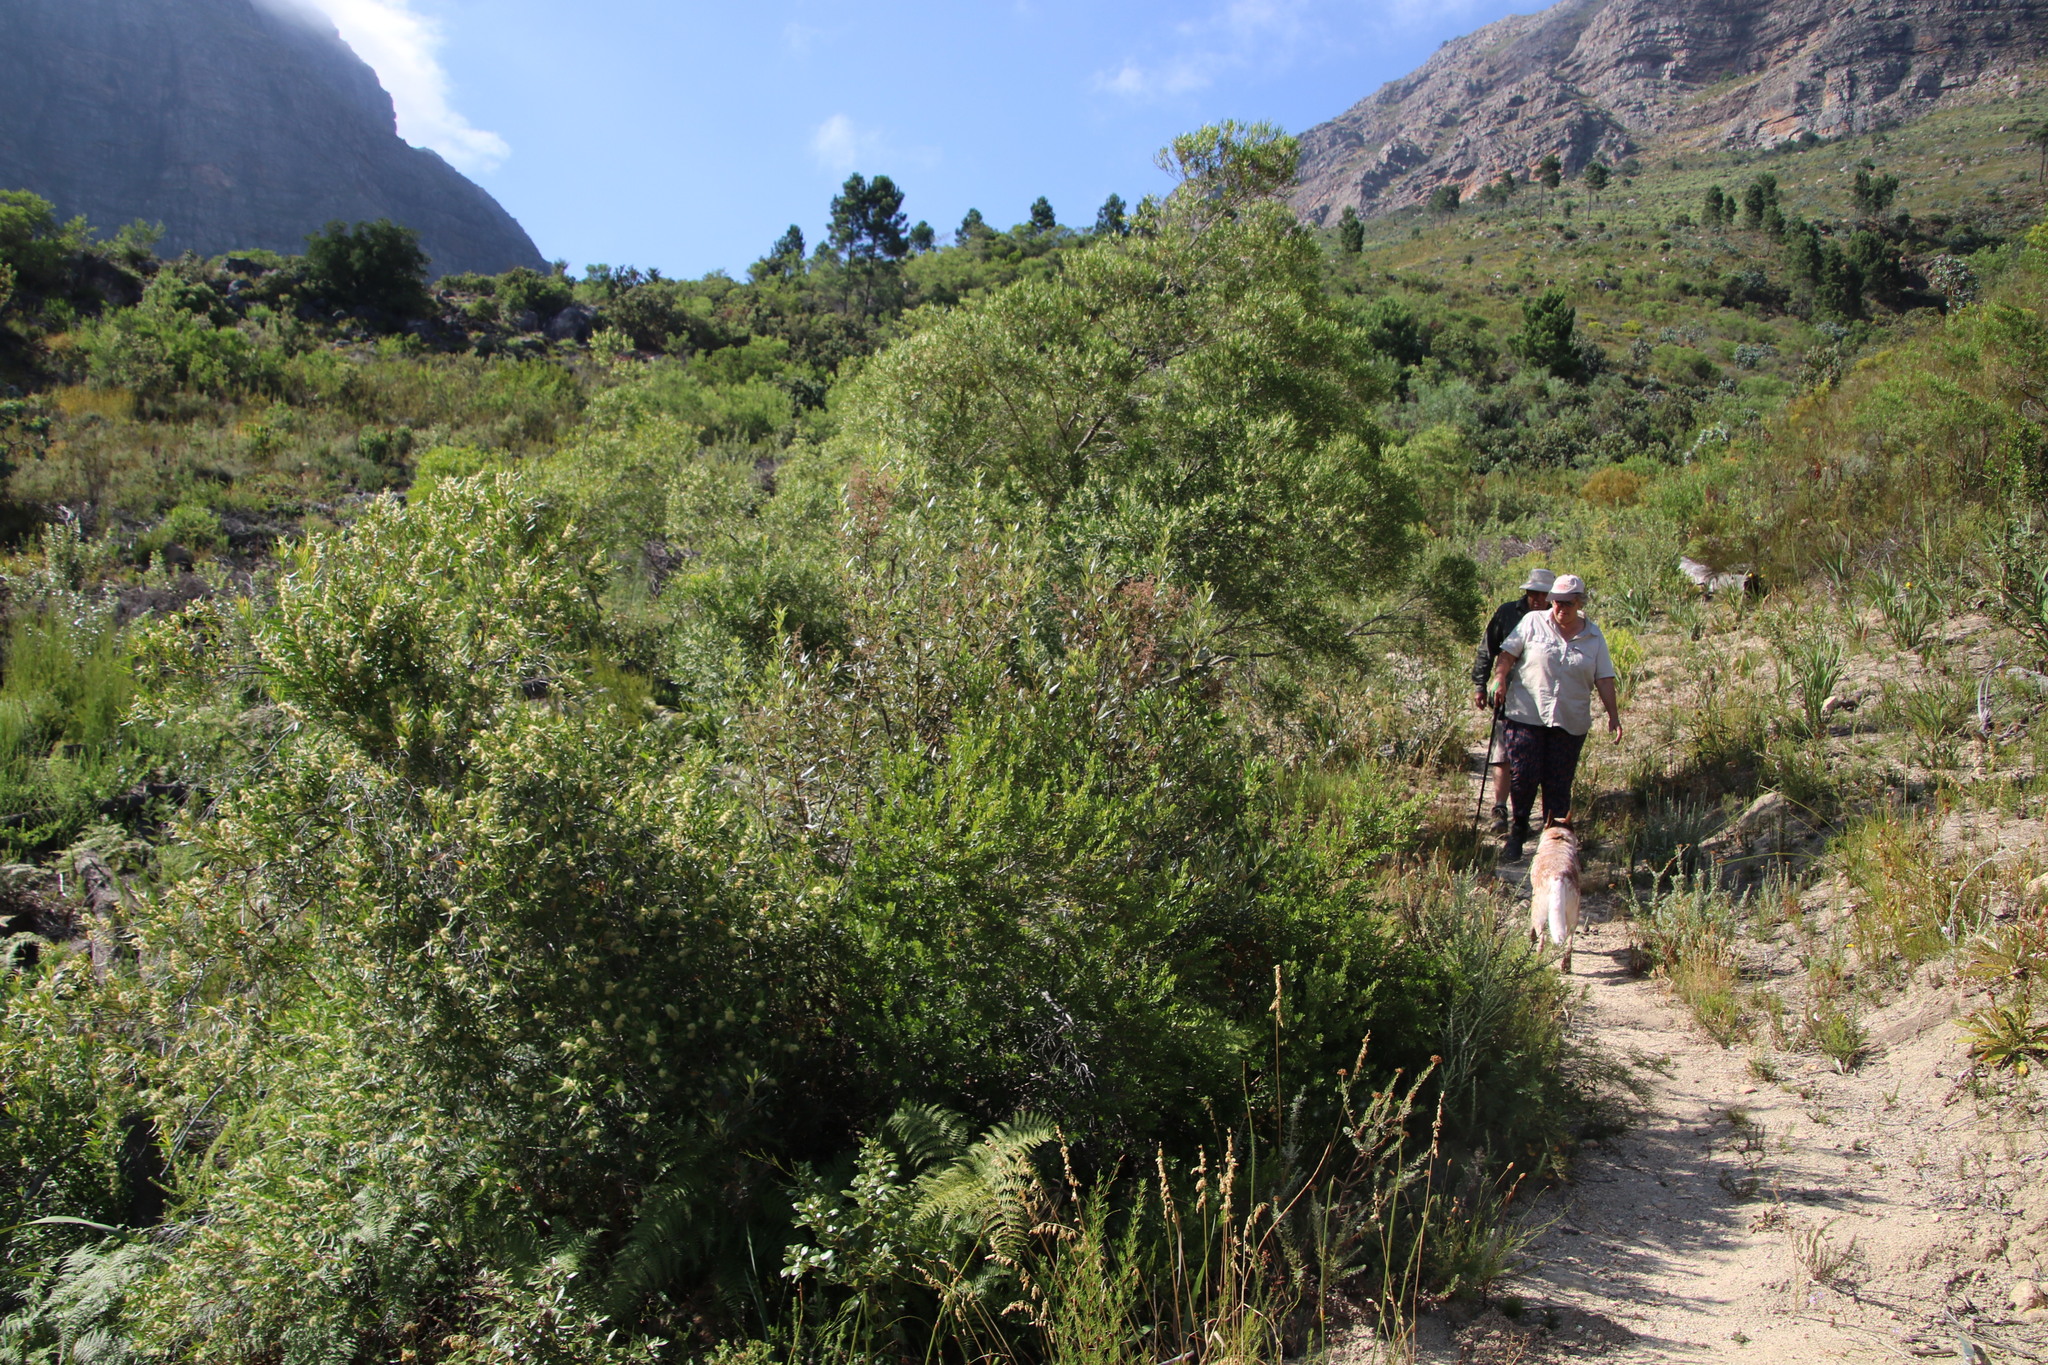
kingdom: Plantae
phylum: Tracheophyta
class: Magnoliopsida
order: Sapindales
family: Anacardiaceae
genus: Searsia
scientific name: Searsia angustifolia
